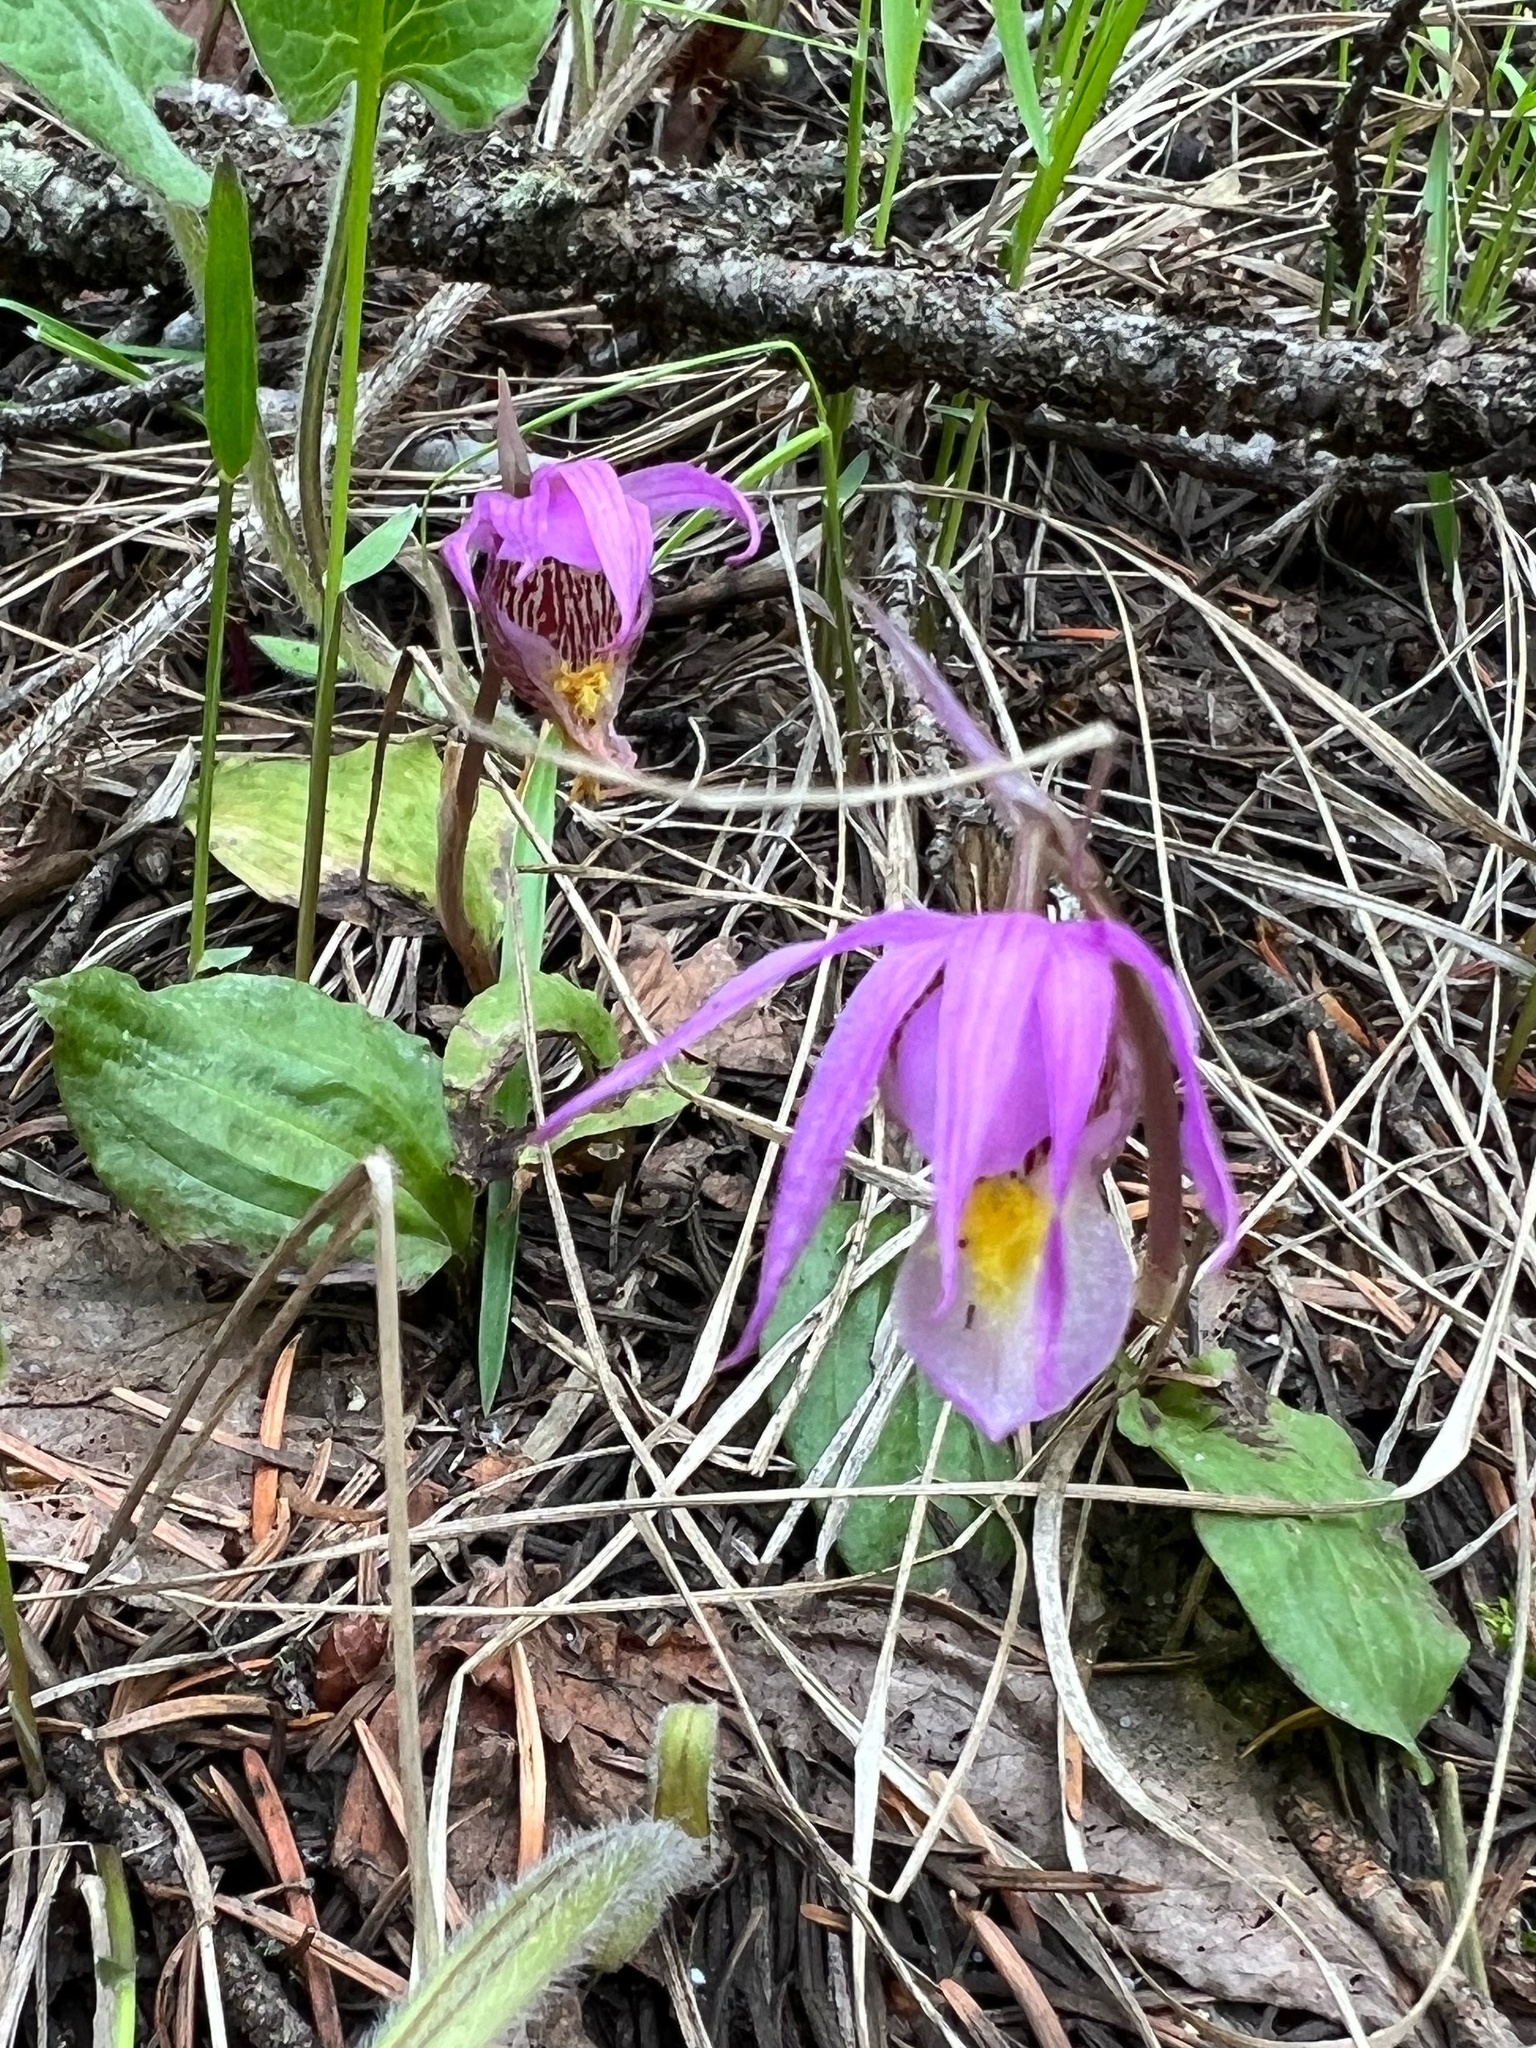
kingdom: Plantae
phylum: Tracheophyta
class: Liliopsida
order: Asparagales
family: Orchidaceae
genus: Calypso
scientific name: Calypso bulbosa
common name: Calypso
